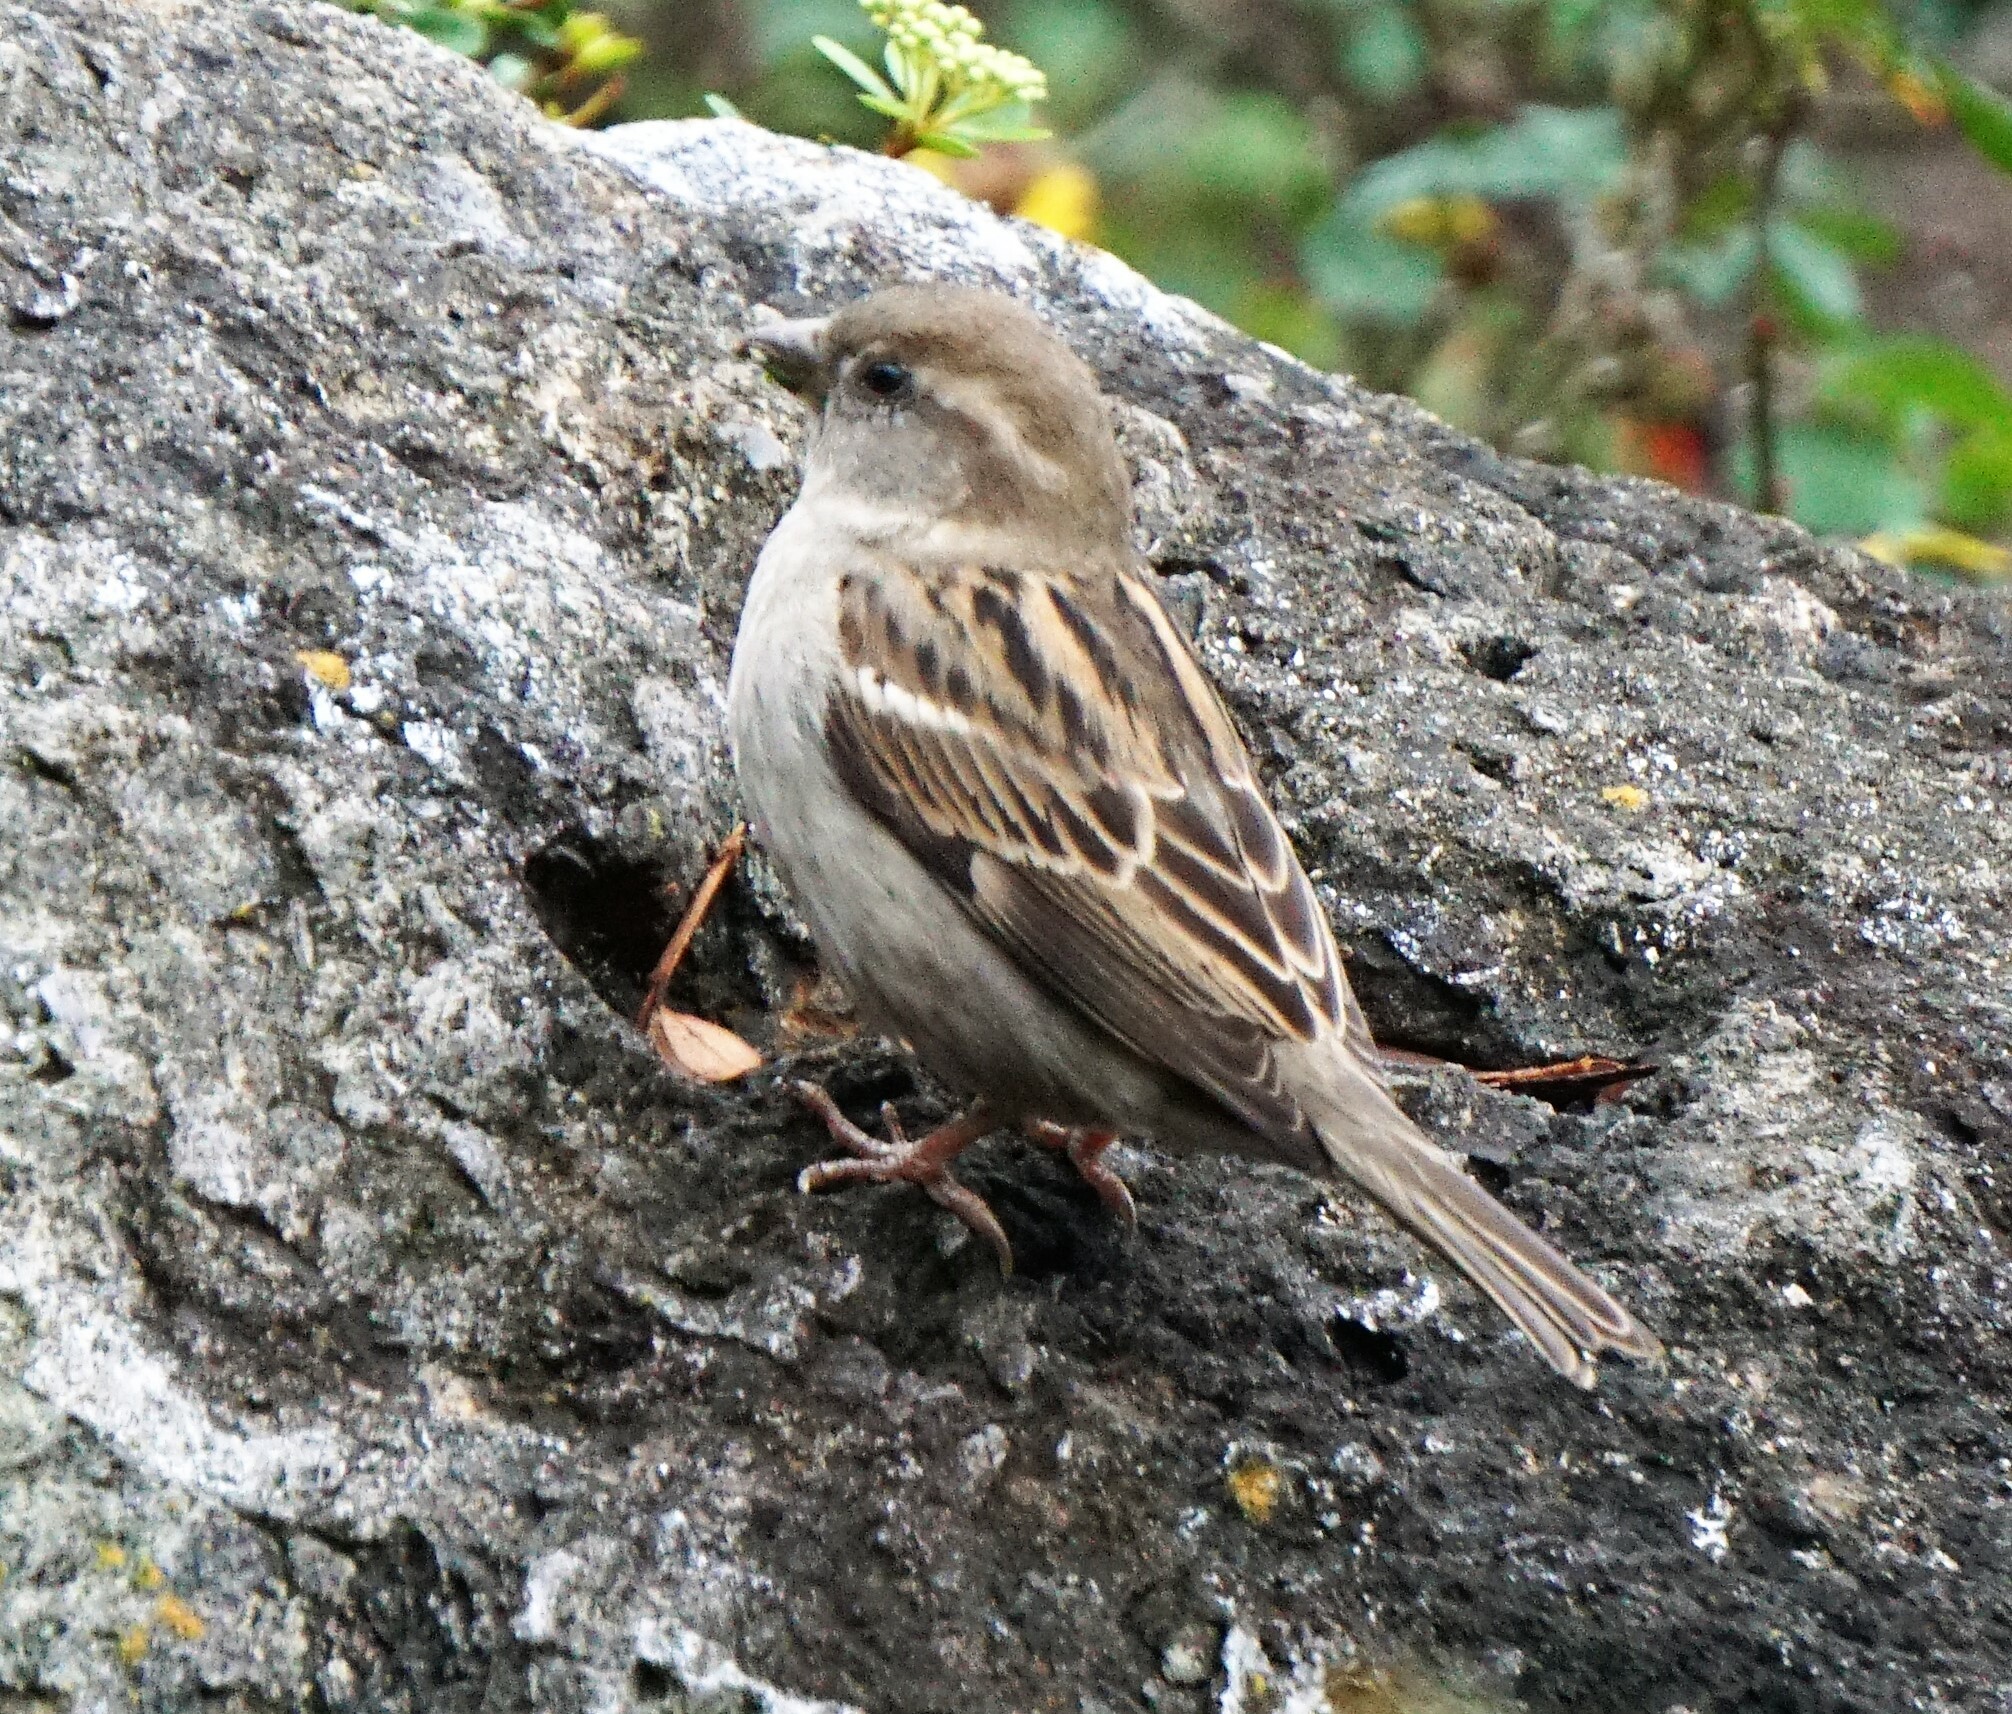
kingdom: Animalia
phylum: Chordata
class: Aves
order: Passeriformes
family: Passeridae
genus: Passer
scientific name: Passer domesticus
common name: House sparrow
